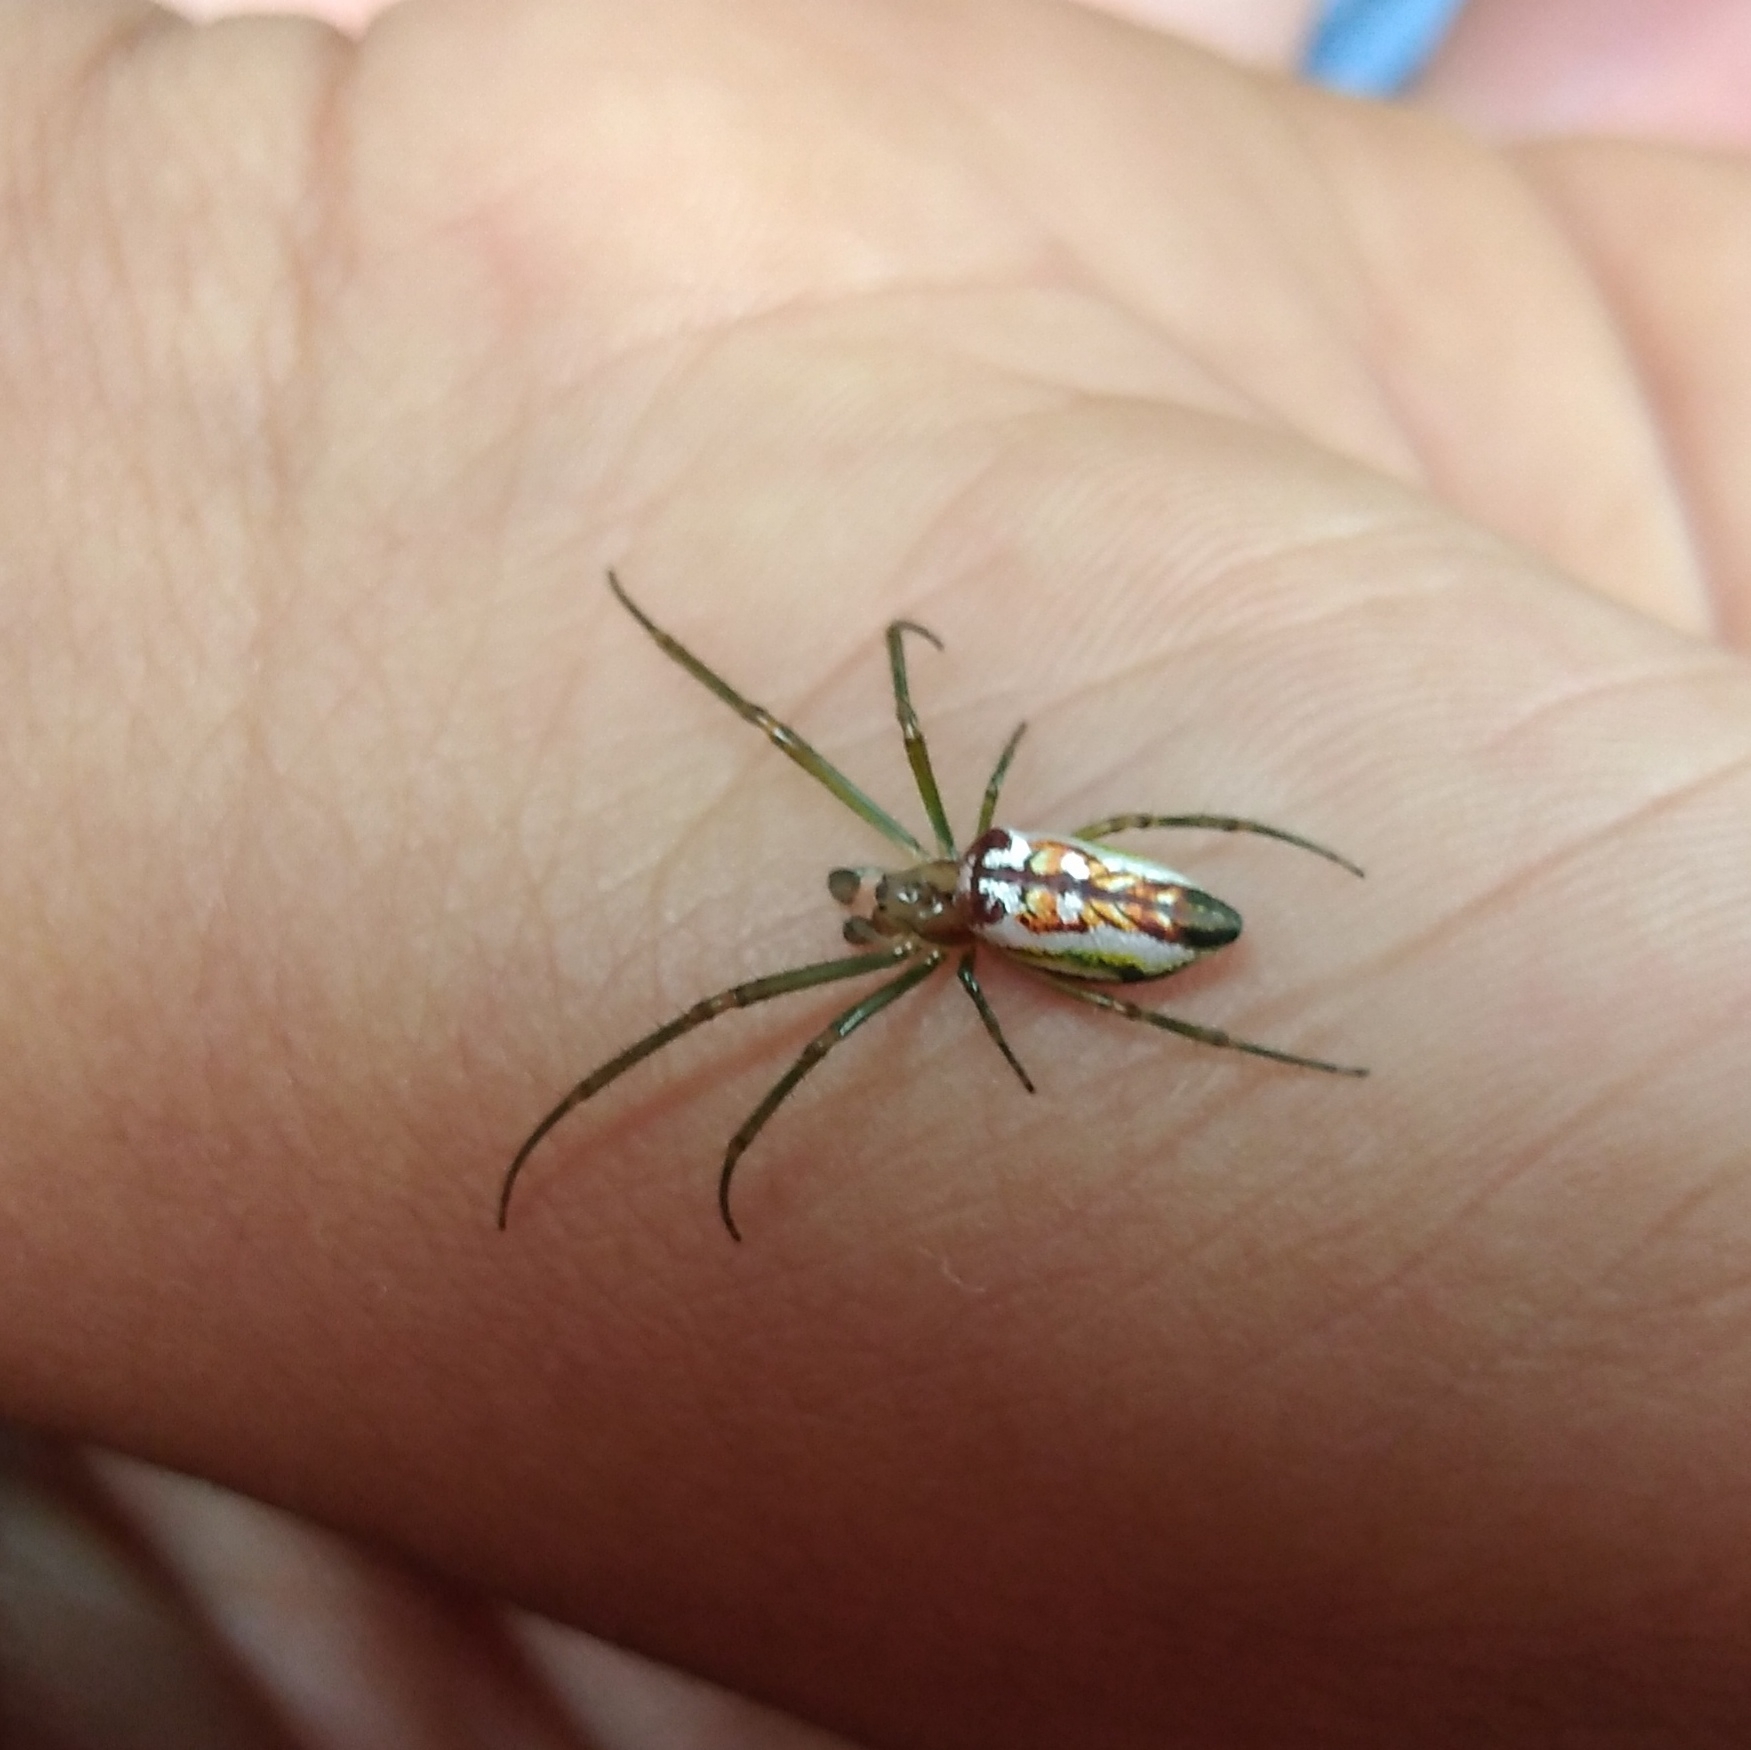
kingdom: Animalia
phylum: Arthropoda
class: Arachnida
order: Araneae
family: Tetragnathidae
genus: Leucauge
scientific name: Leucauge festiva
